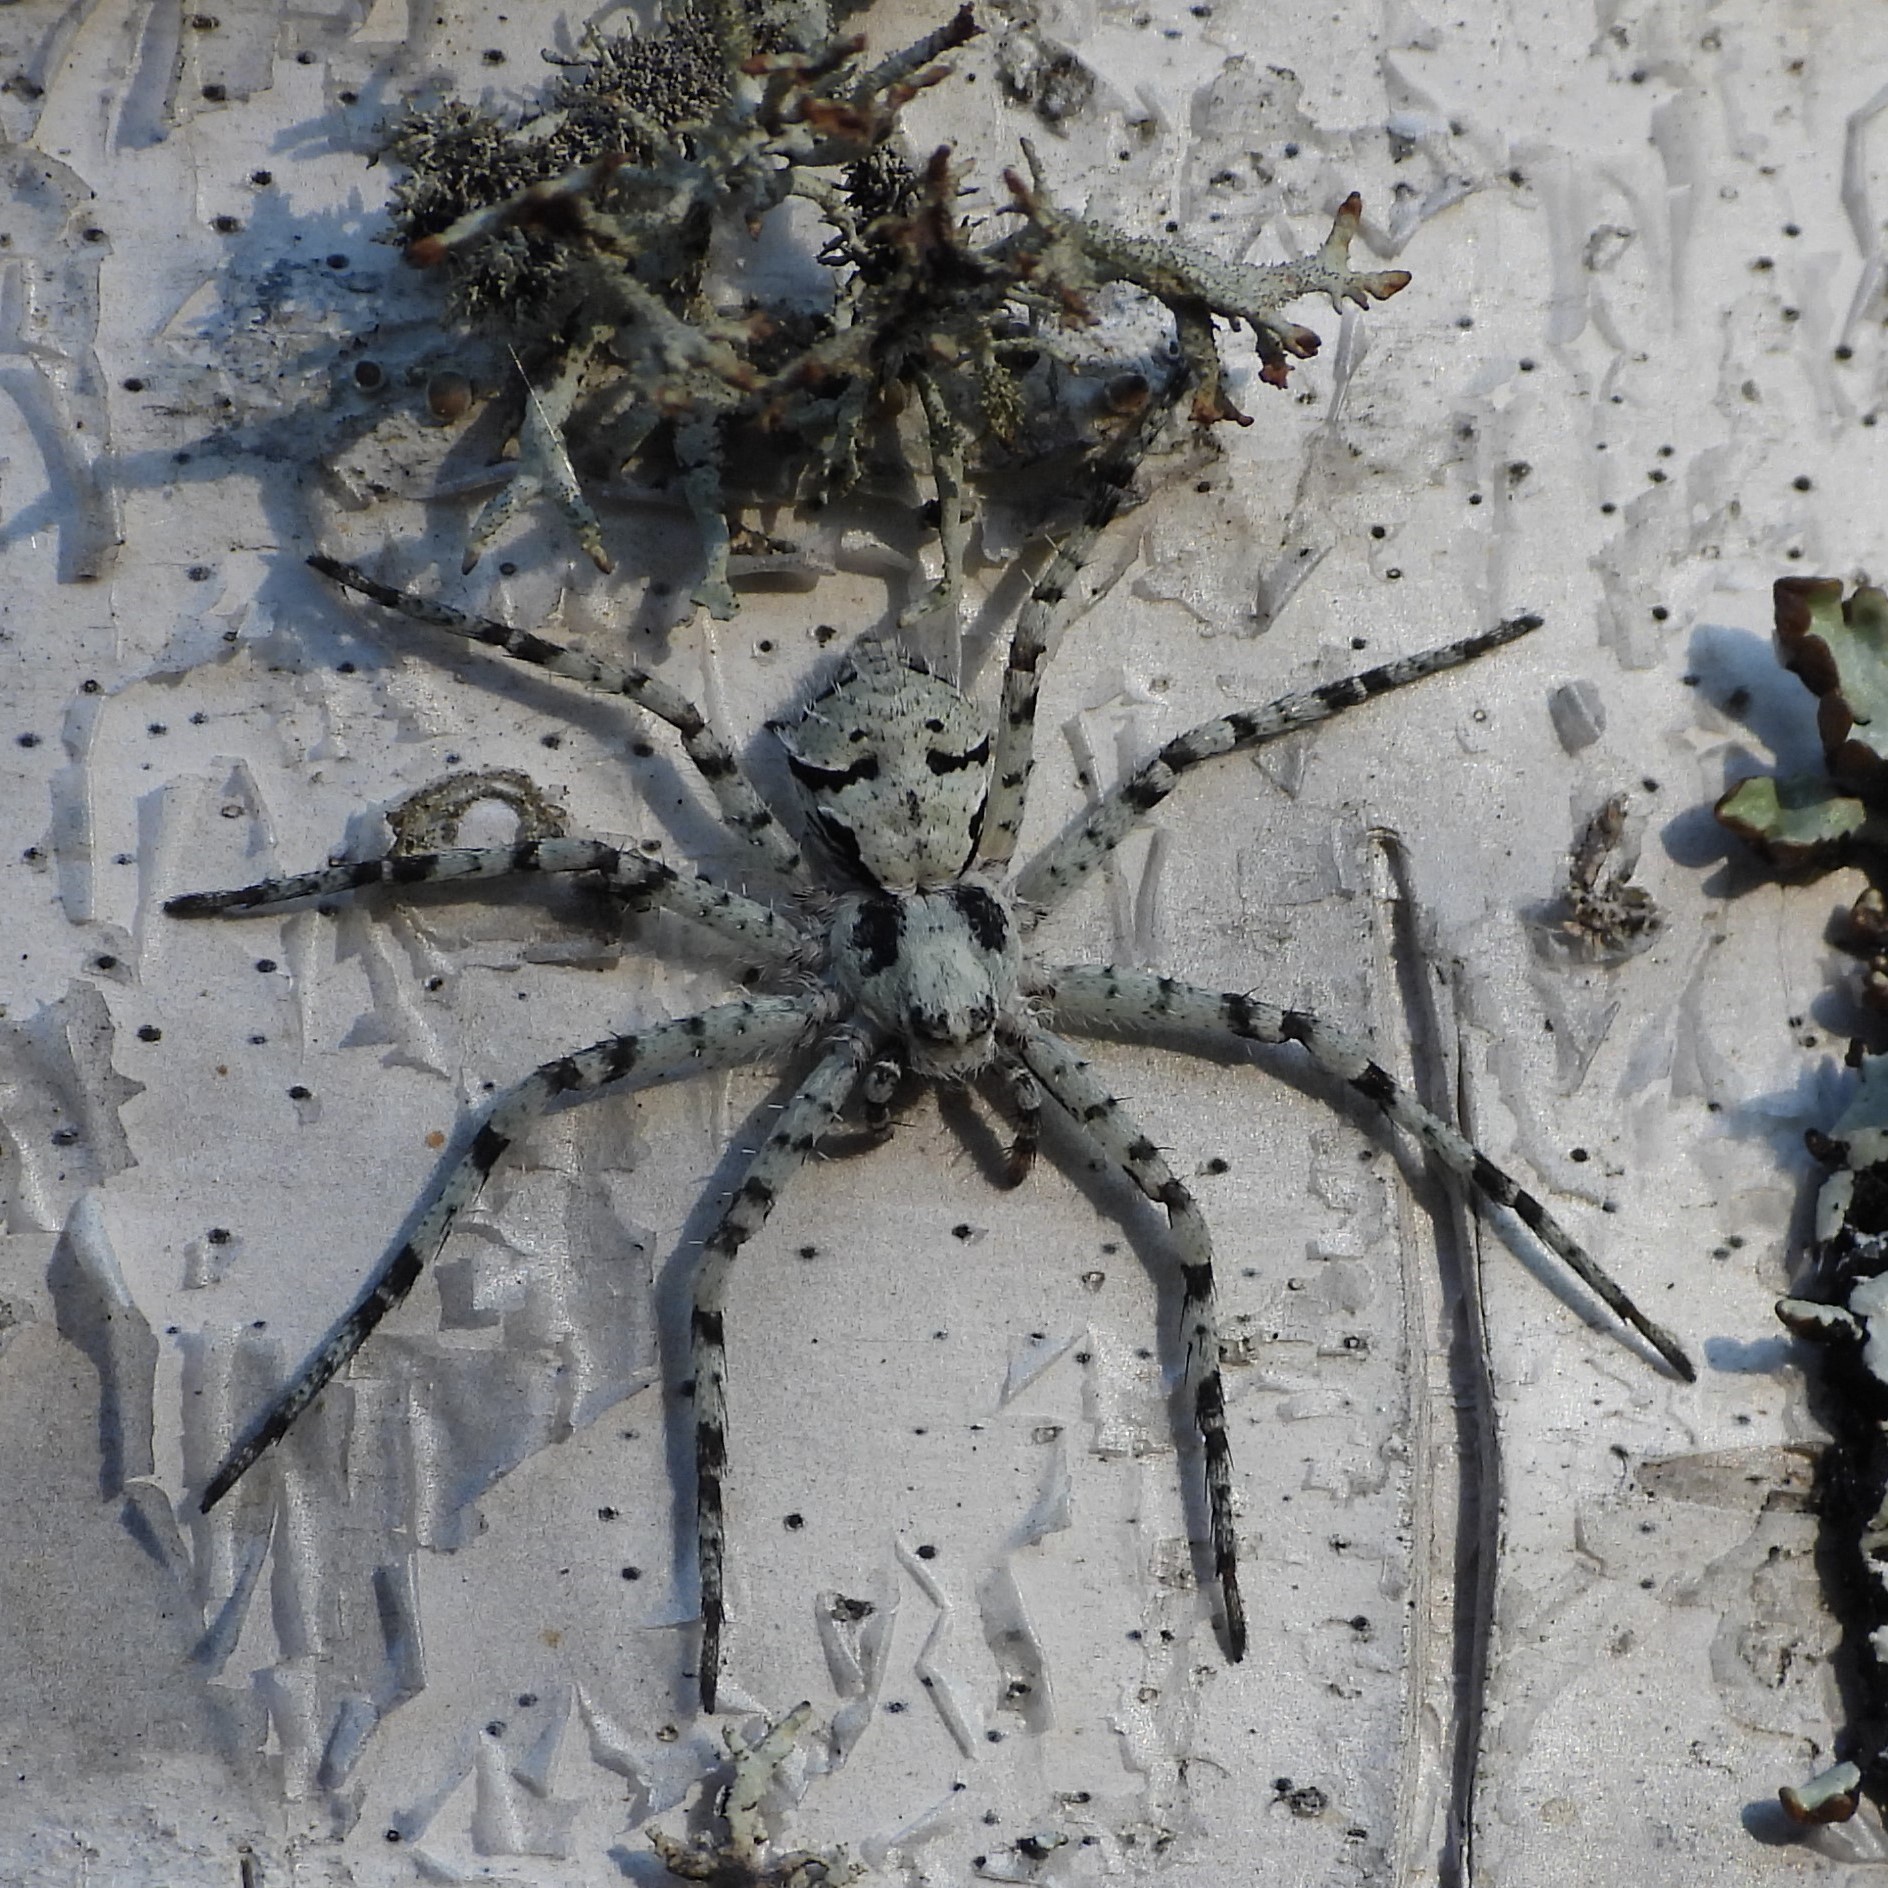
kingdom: Animalia
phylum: Arthropoda
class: Arachnida
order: Araneae
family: Philodromidae
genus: Philodromus
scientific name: Philodromus margaritatus
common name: Lichen running-spider
